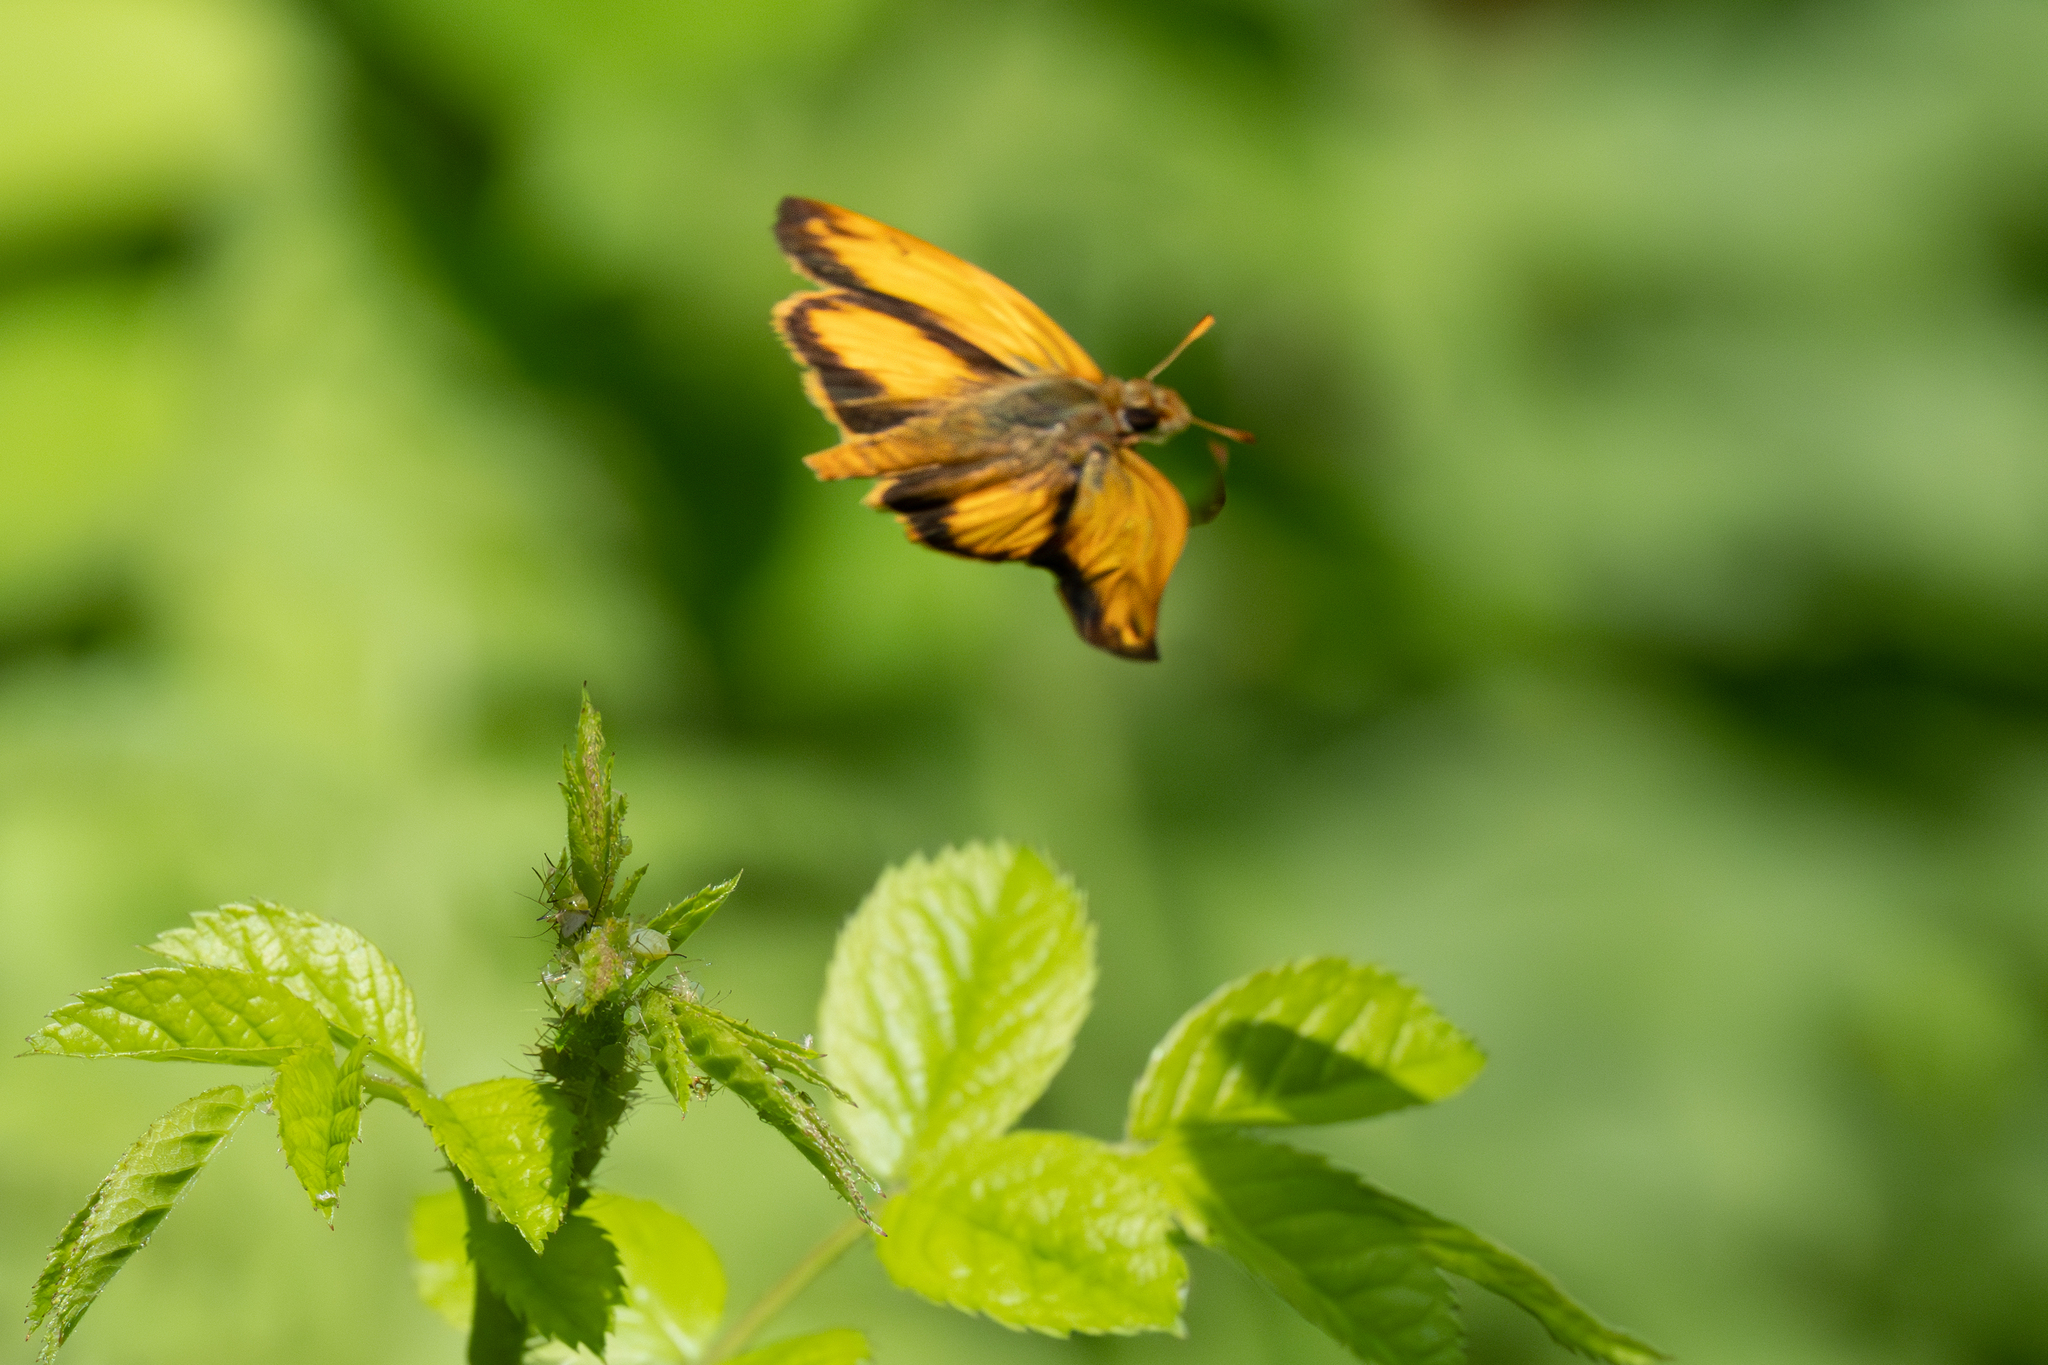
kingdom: Animalia
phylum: Arthropoda
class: Insecta
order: Lepidoptera
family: Hesperiidae
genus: Lon
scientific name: Lon zabulon
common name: Zabulon skipper
